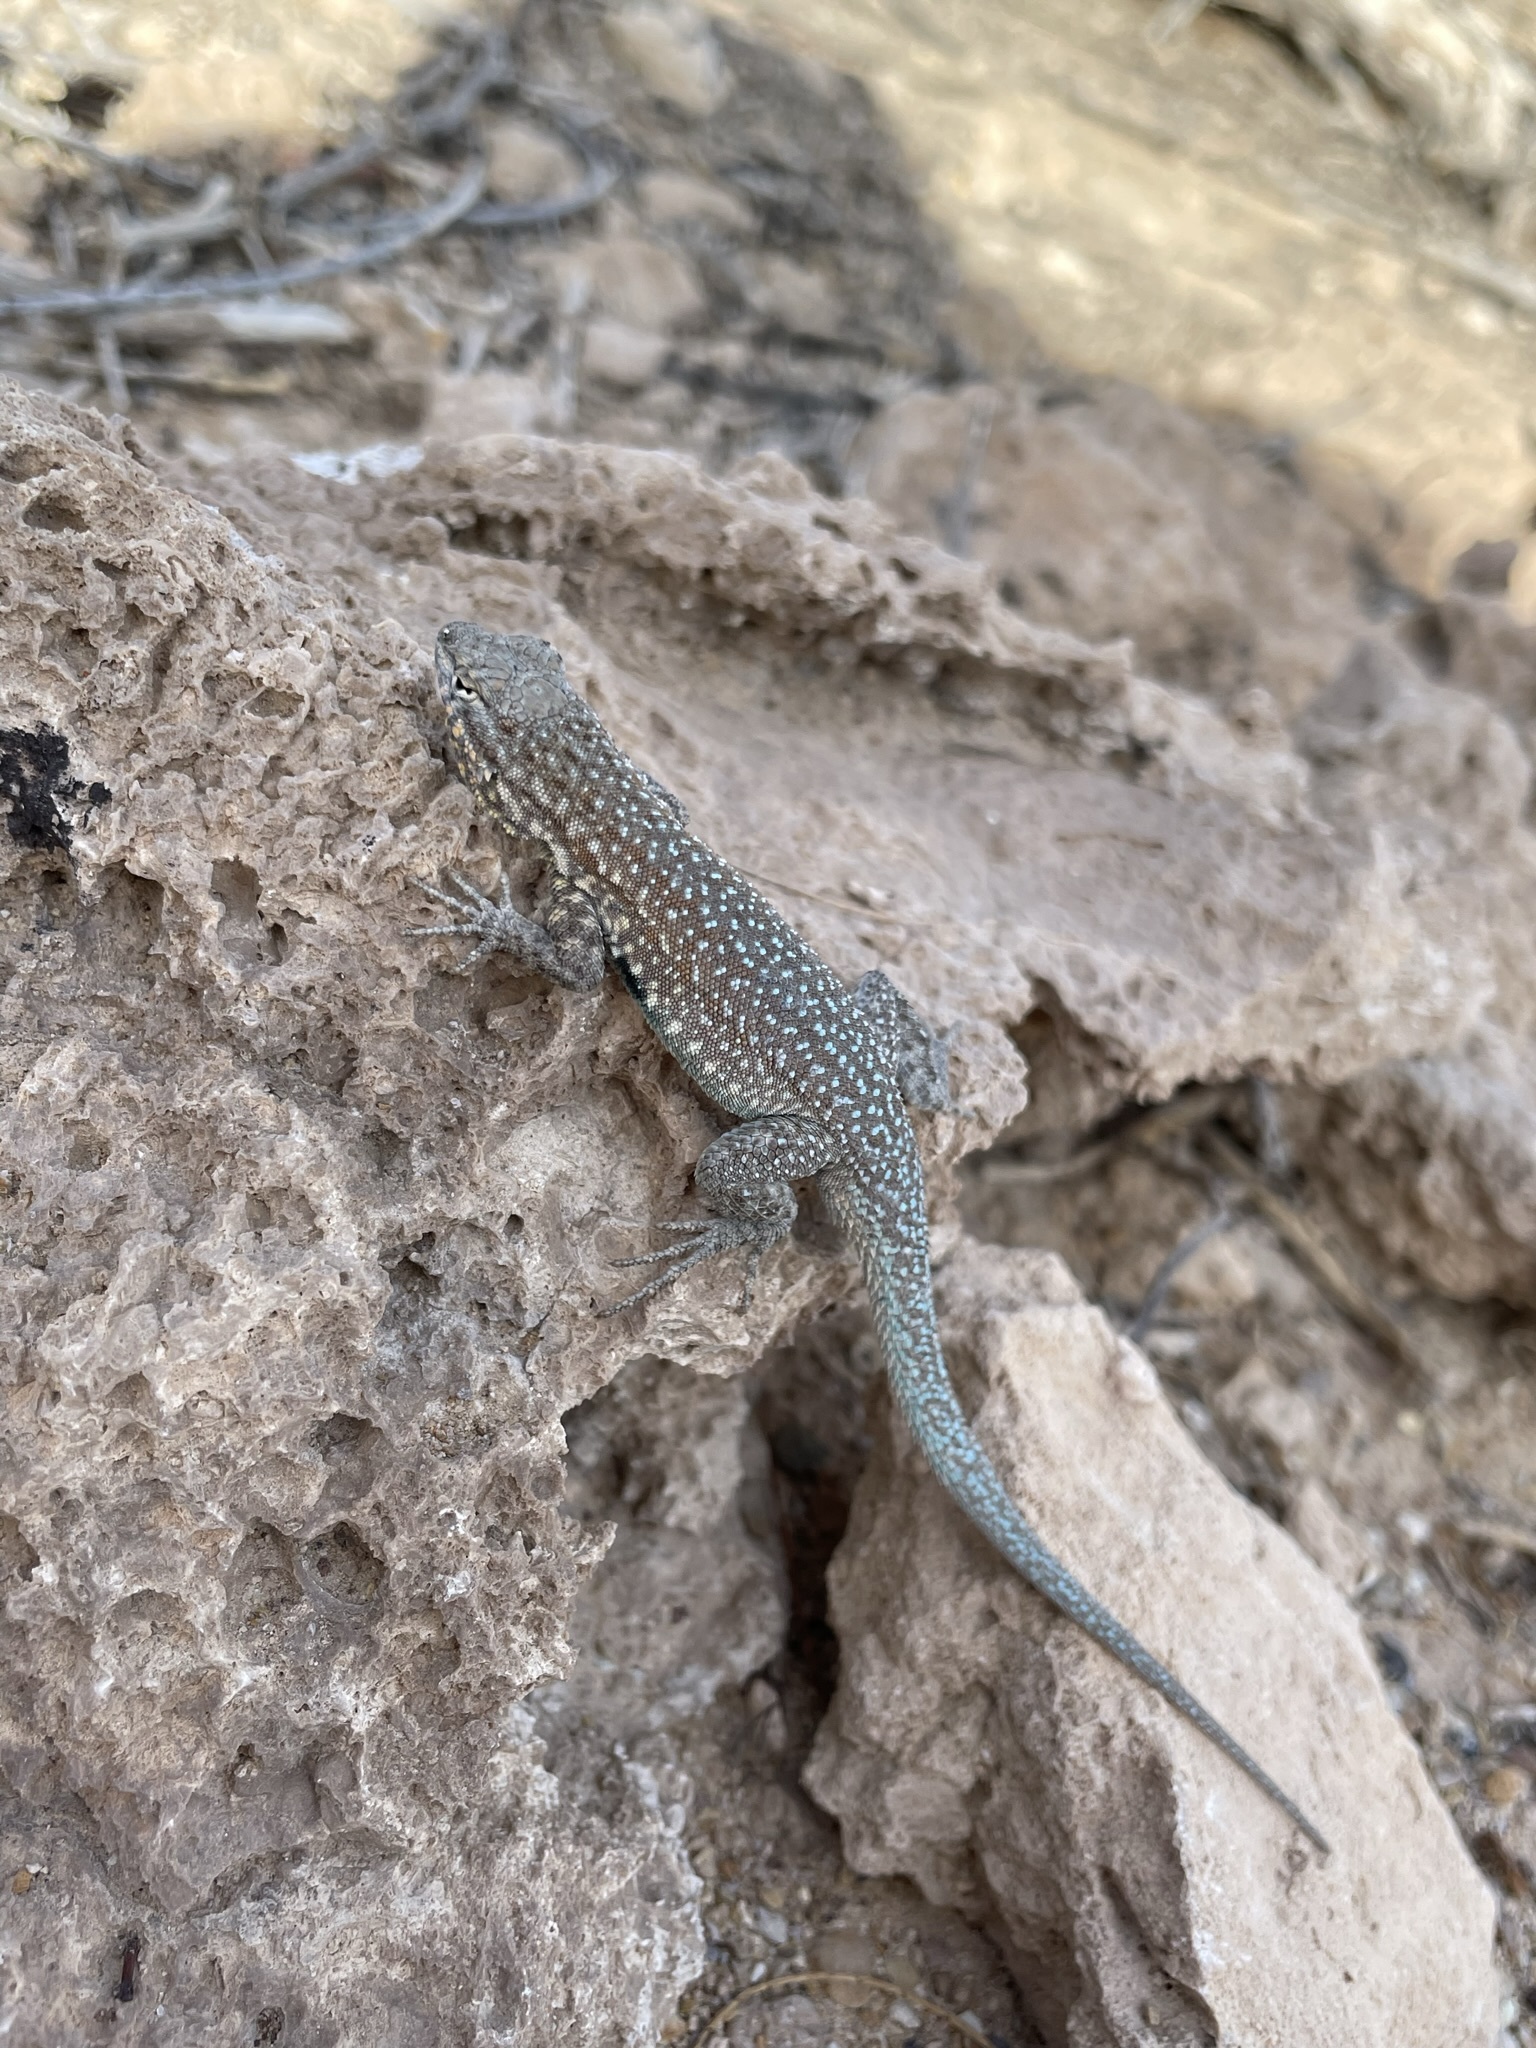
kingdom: Animalia
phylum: Chordata
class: Squamata
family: Phrynosomatidae
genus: Uta
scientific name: Uta stansburiana
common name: Side-blotched lizard
